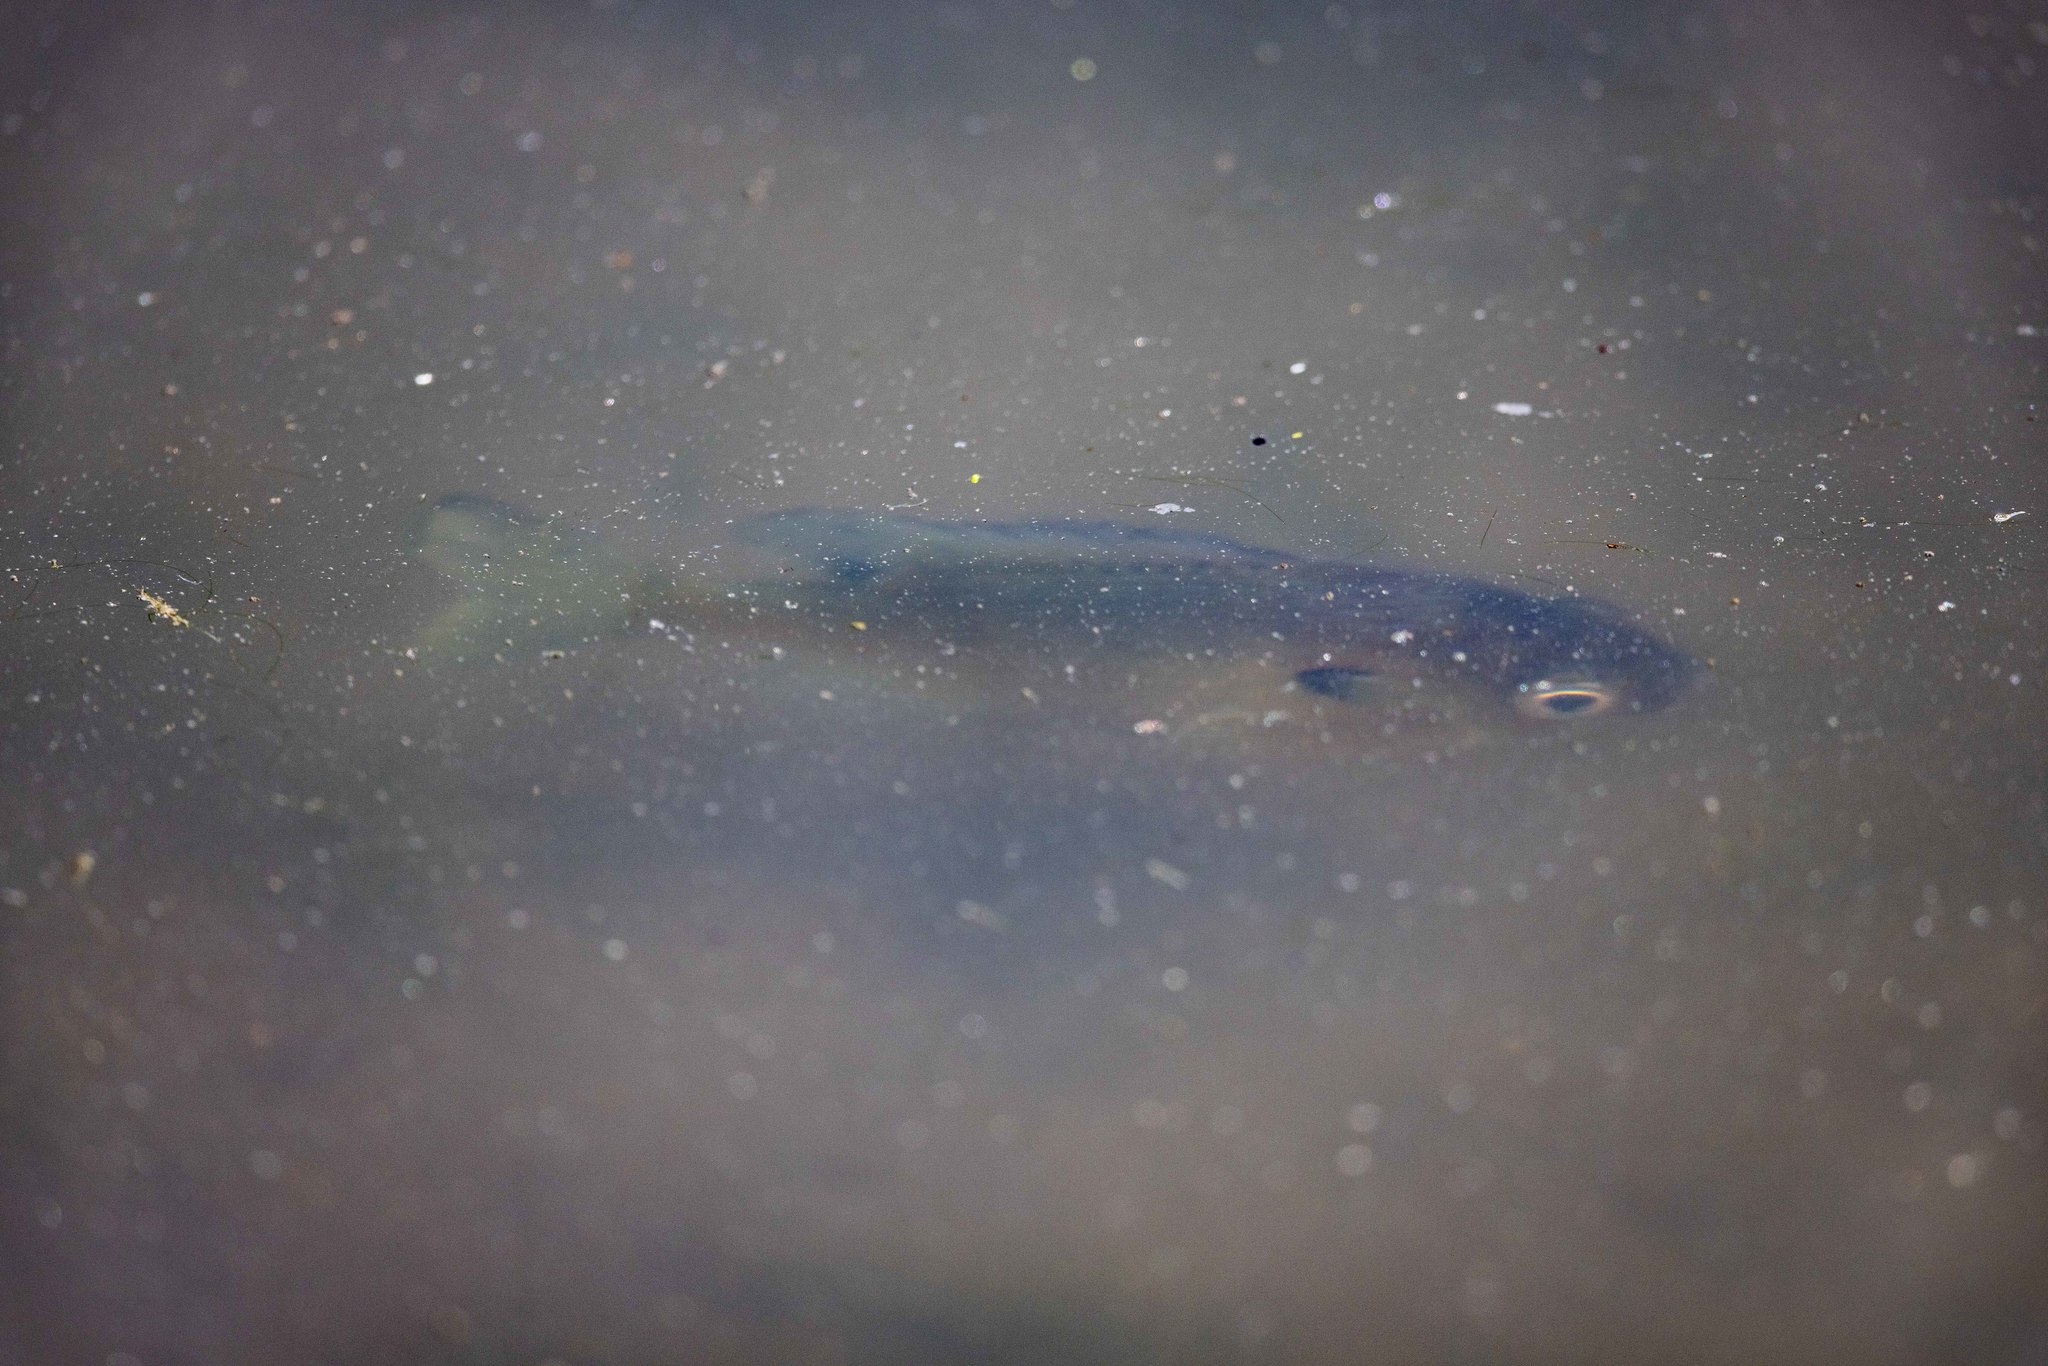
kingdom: Animalia
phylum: Chordata
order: Perciformes
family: Centrarchidae
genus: Lepomis
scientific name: Lepomis macrochirus
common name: Bluegill
